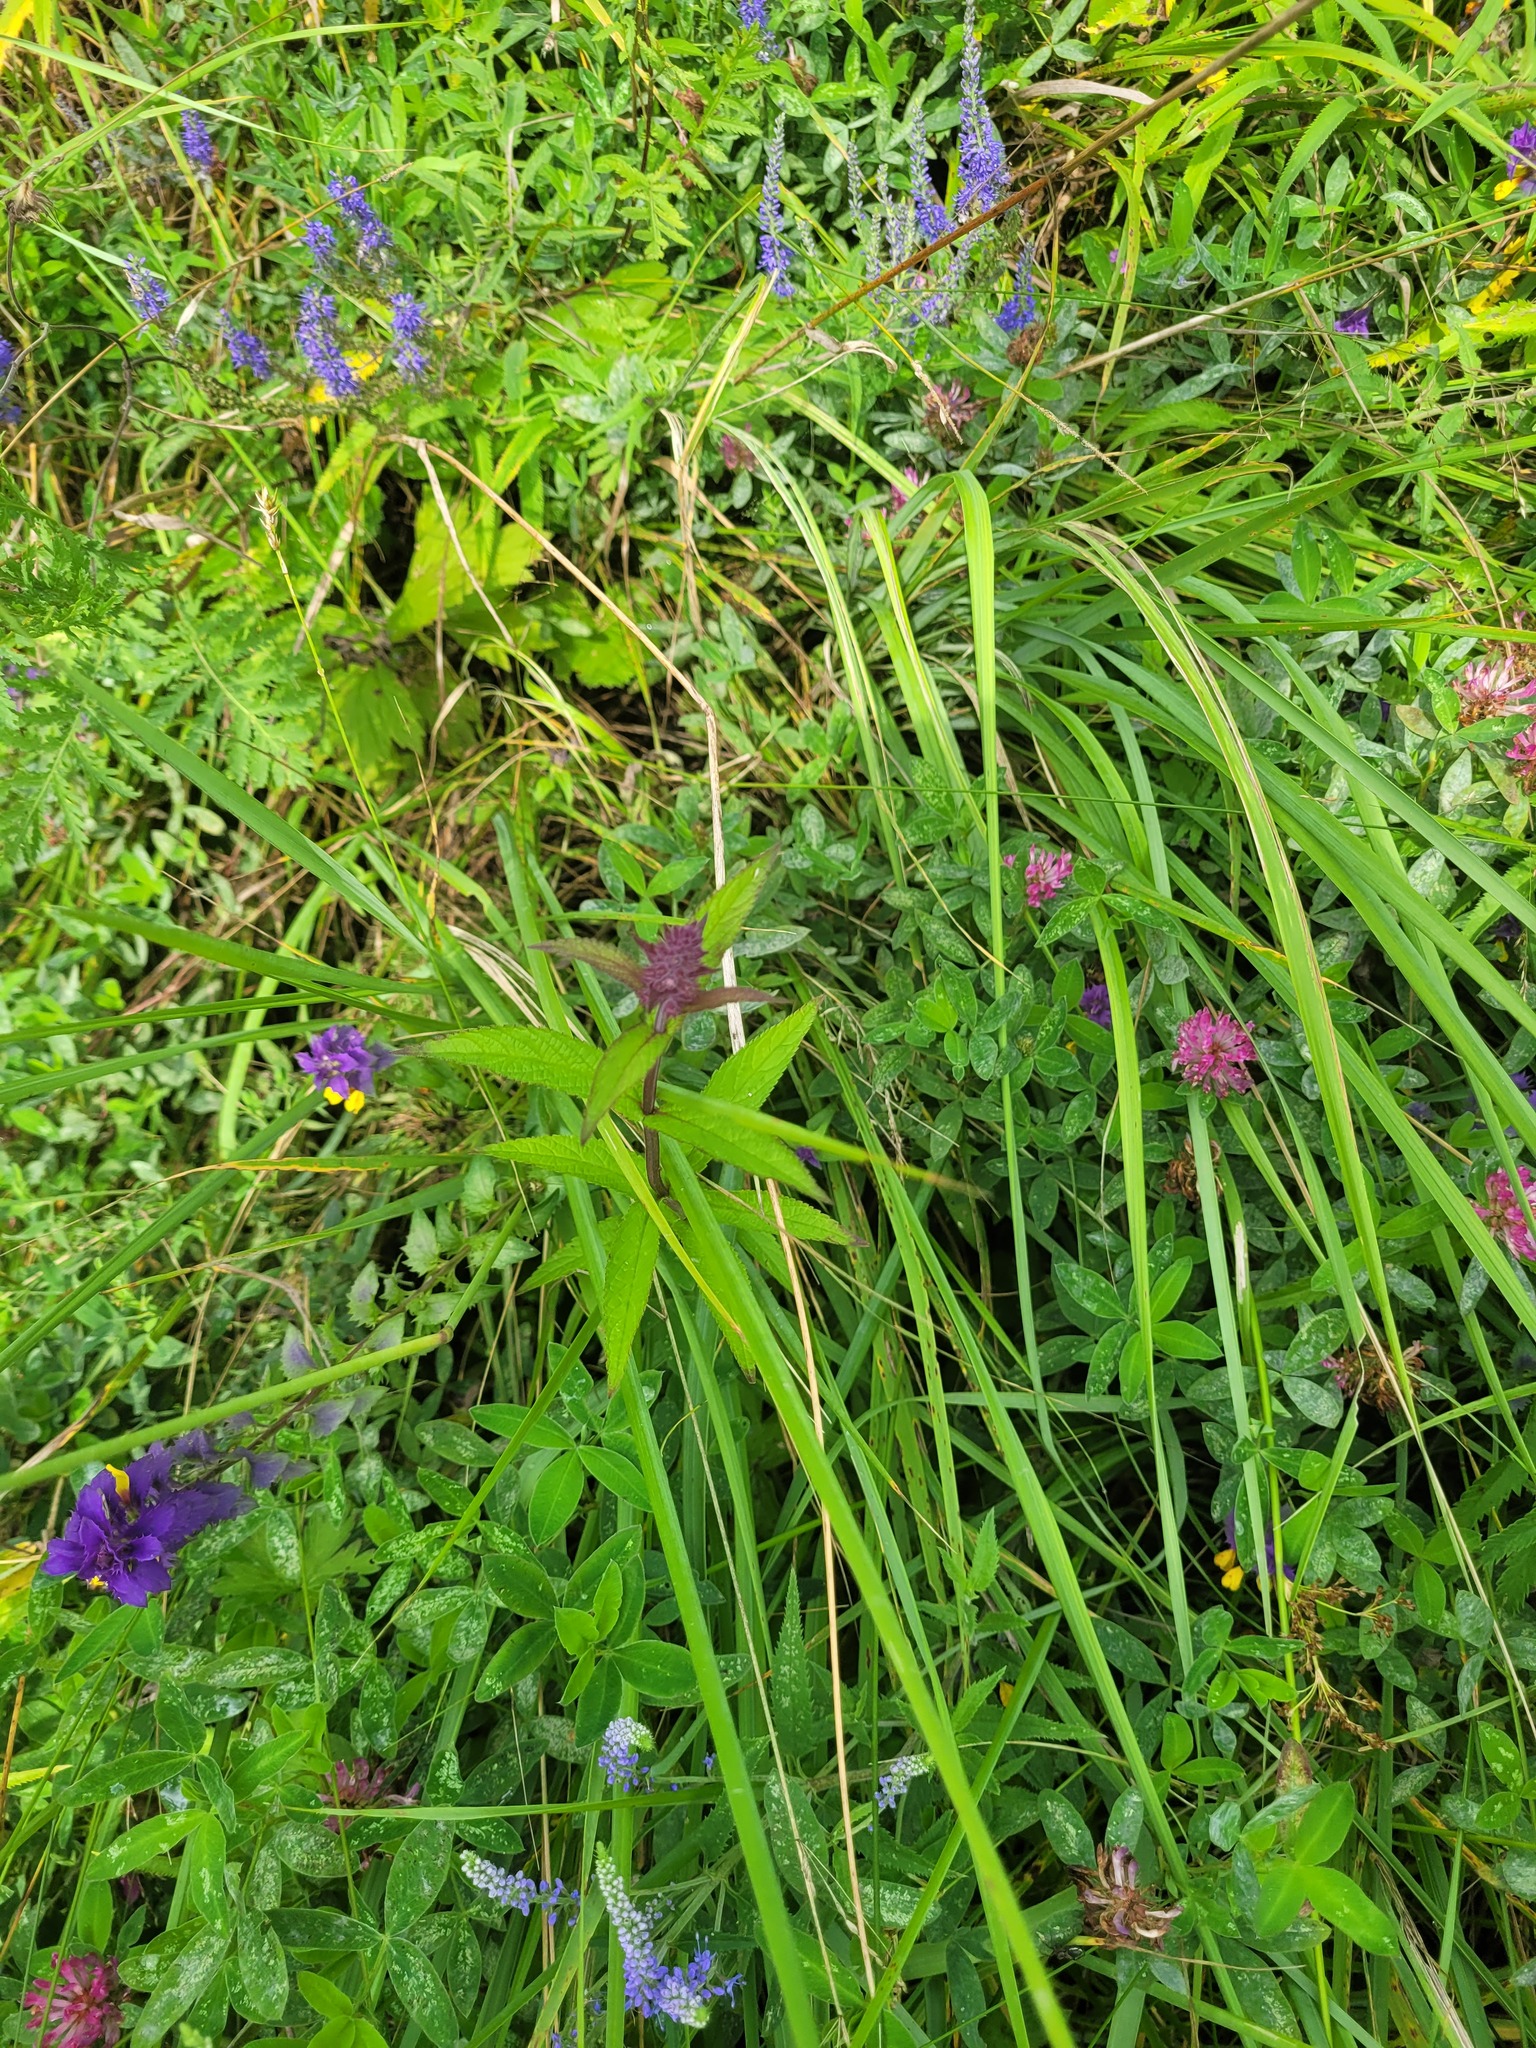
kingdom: Plantae
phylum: Tracheophyta
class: Magnoliopsida
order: Lamiales
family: Lamiaceae
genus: Stachys
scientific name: Stachys palustris
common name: Marsh woundwort
